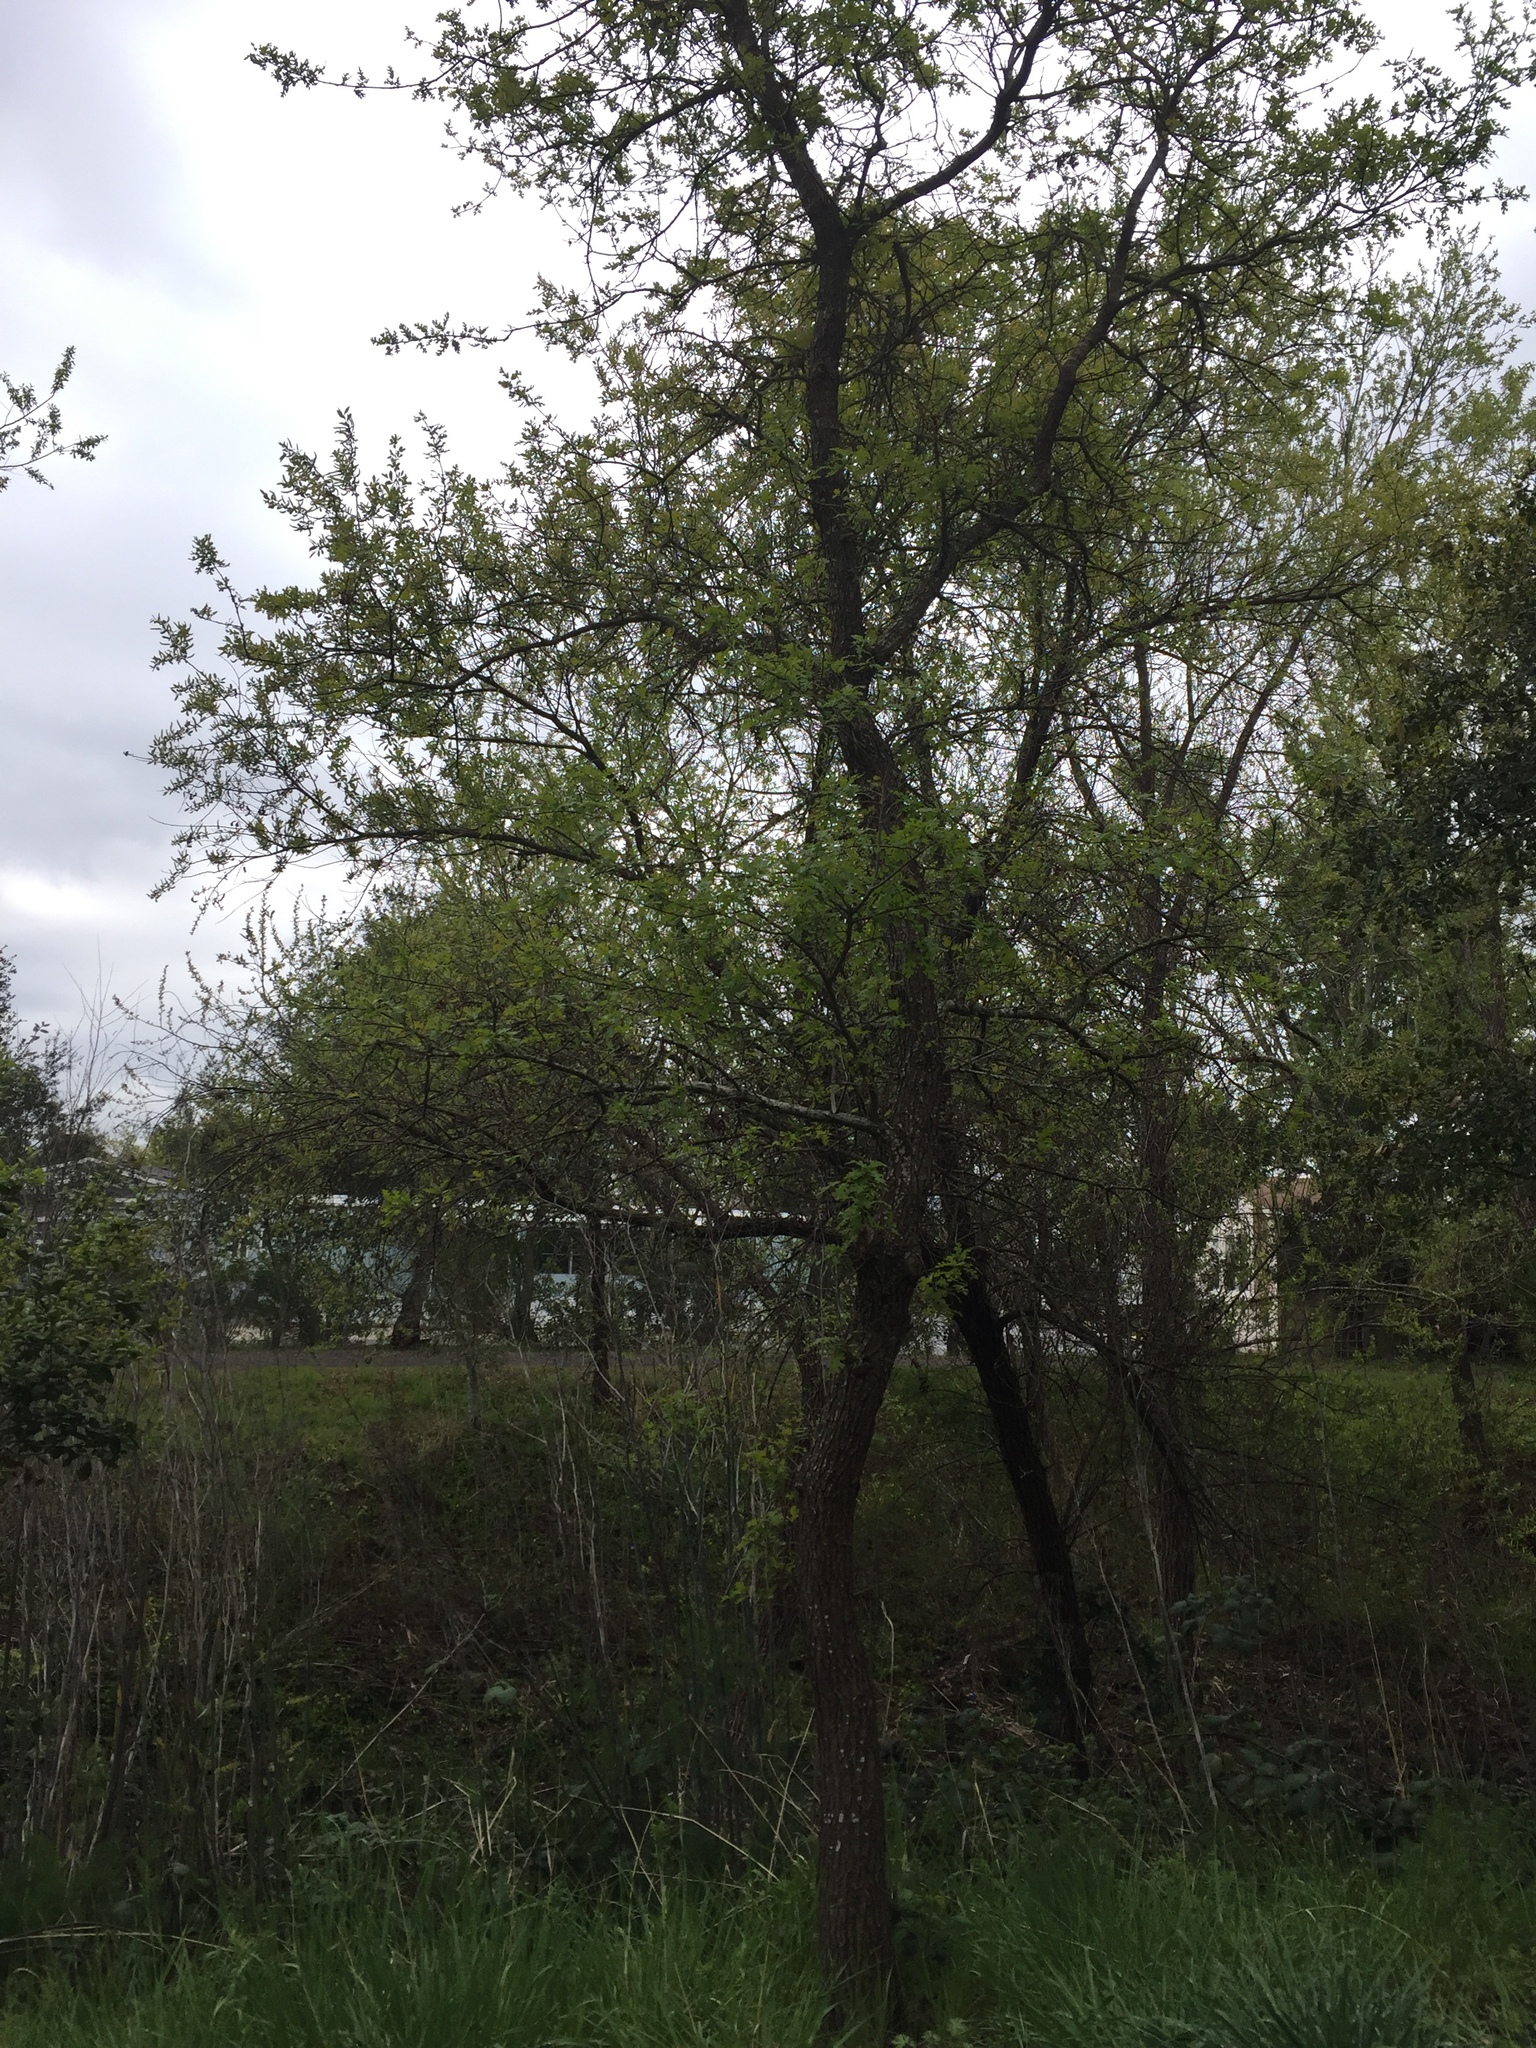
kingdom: Plantae
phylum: Tracheophyta
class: Magnoliopsida
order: Fagales
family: Fagaceae
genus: Quercus
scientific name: Quercus lobata
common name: Valley oak
